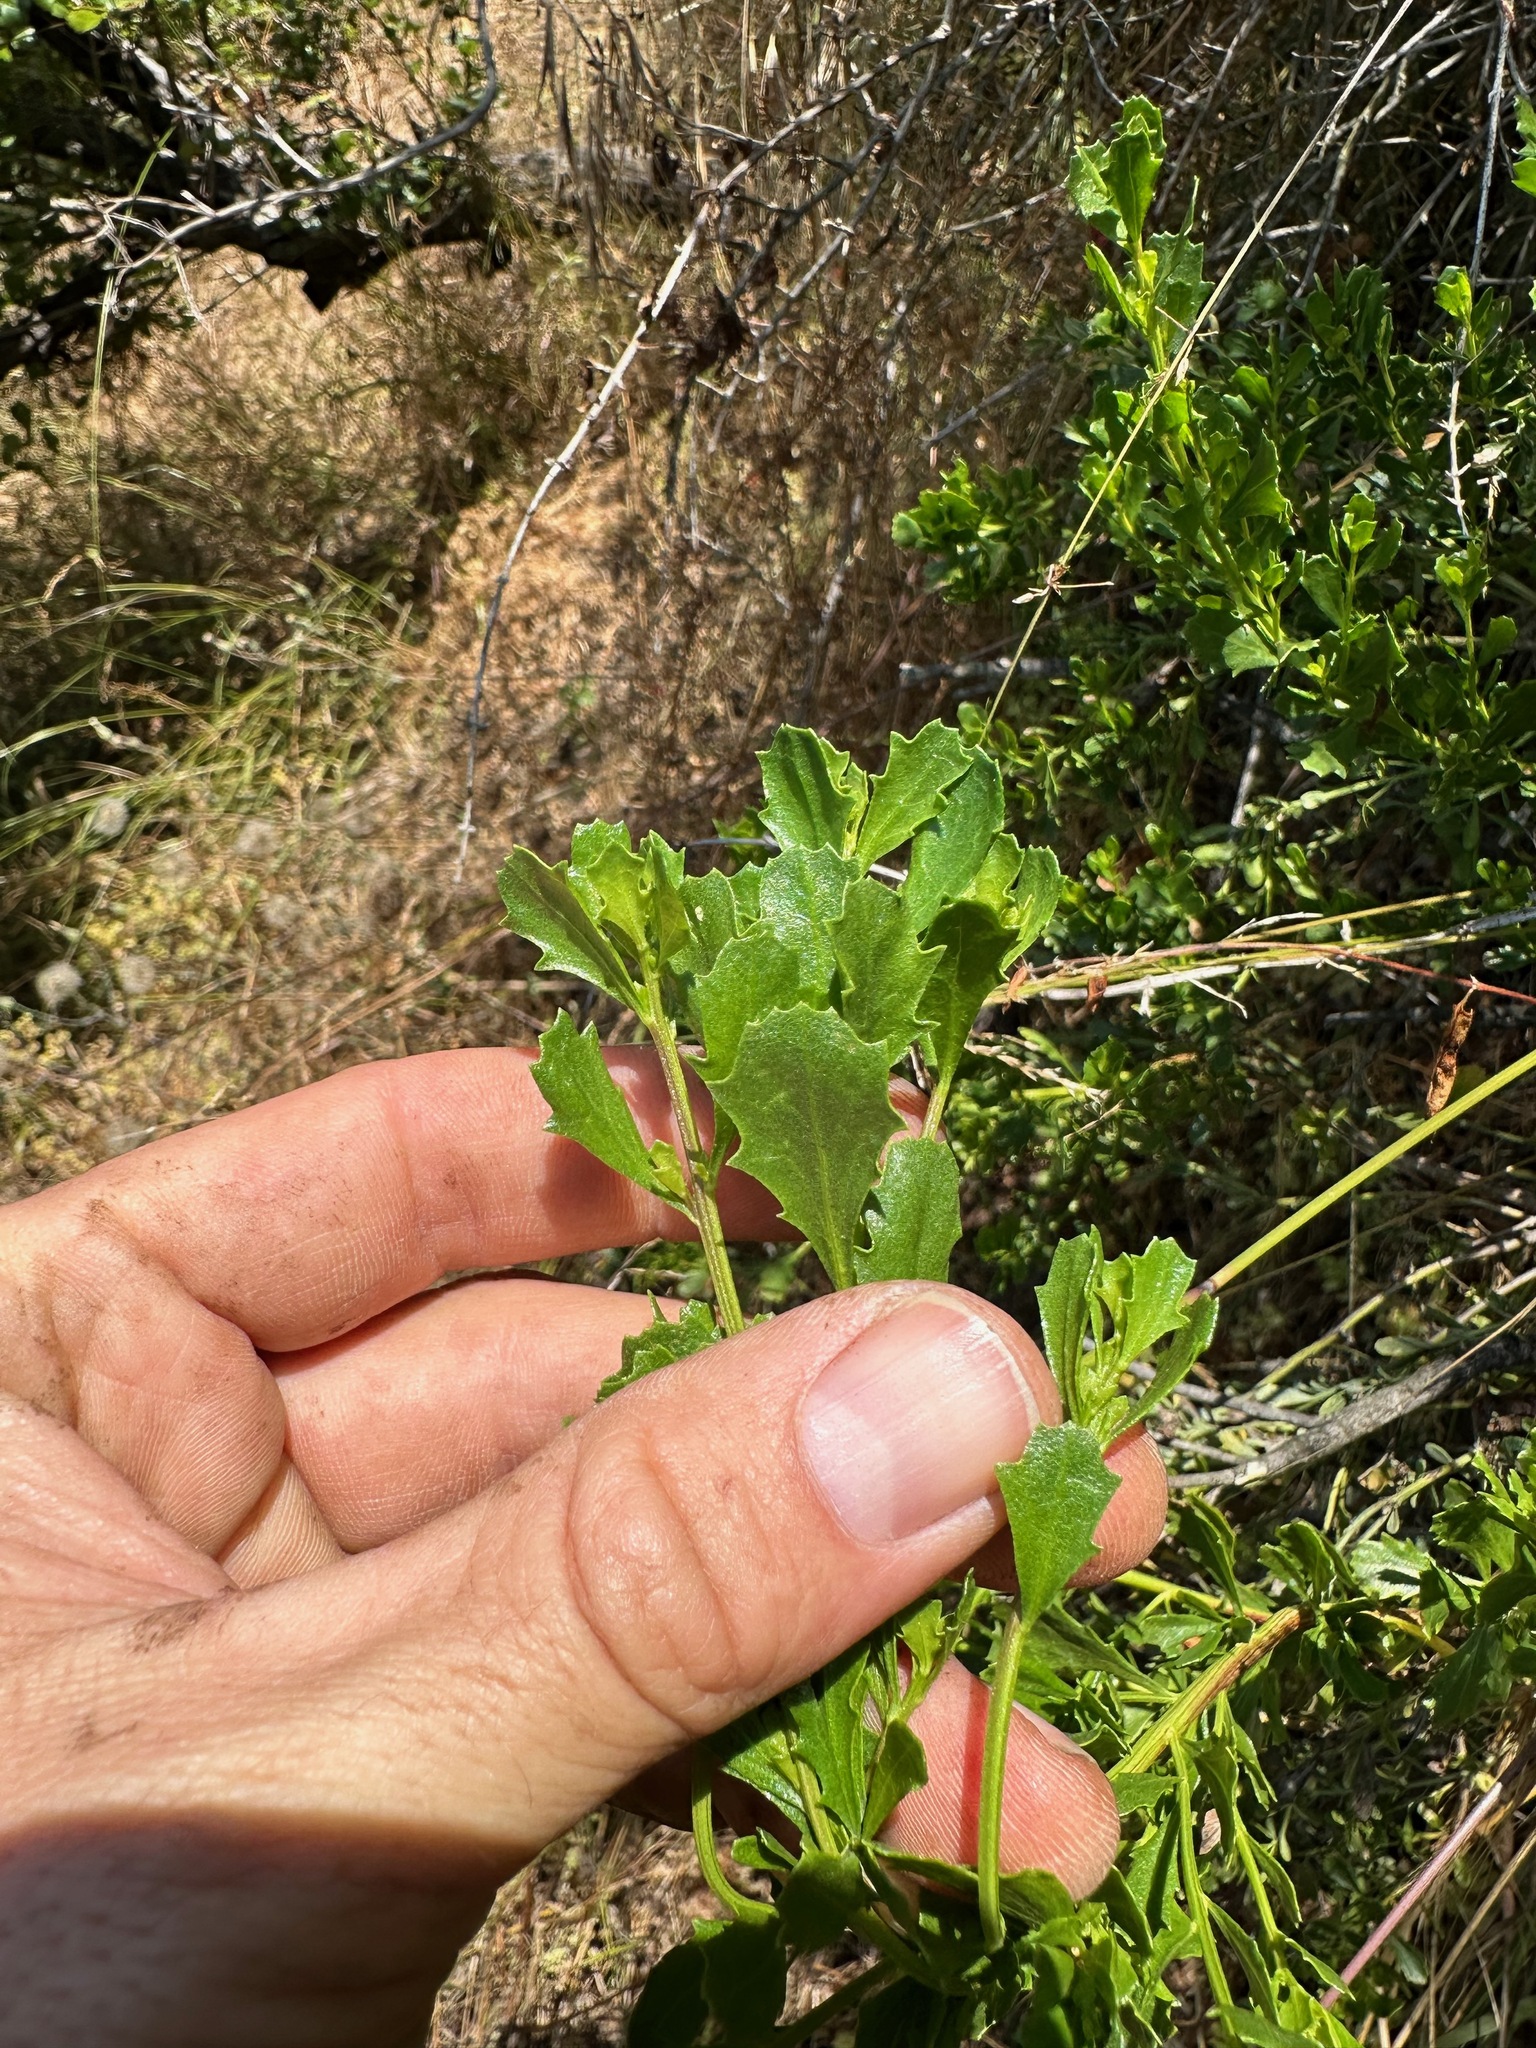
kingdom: Plantae
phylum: Tracheophyta
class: Magnoliopsida
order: Asterales
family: Asteraceae
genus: Baccharis
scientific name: Baccharis pilularis
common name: Coyotebrush
